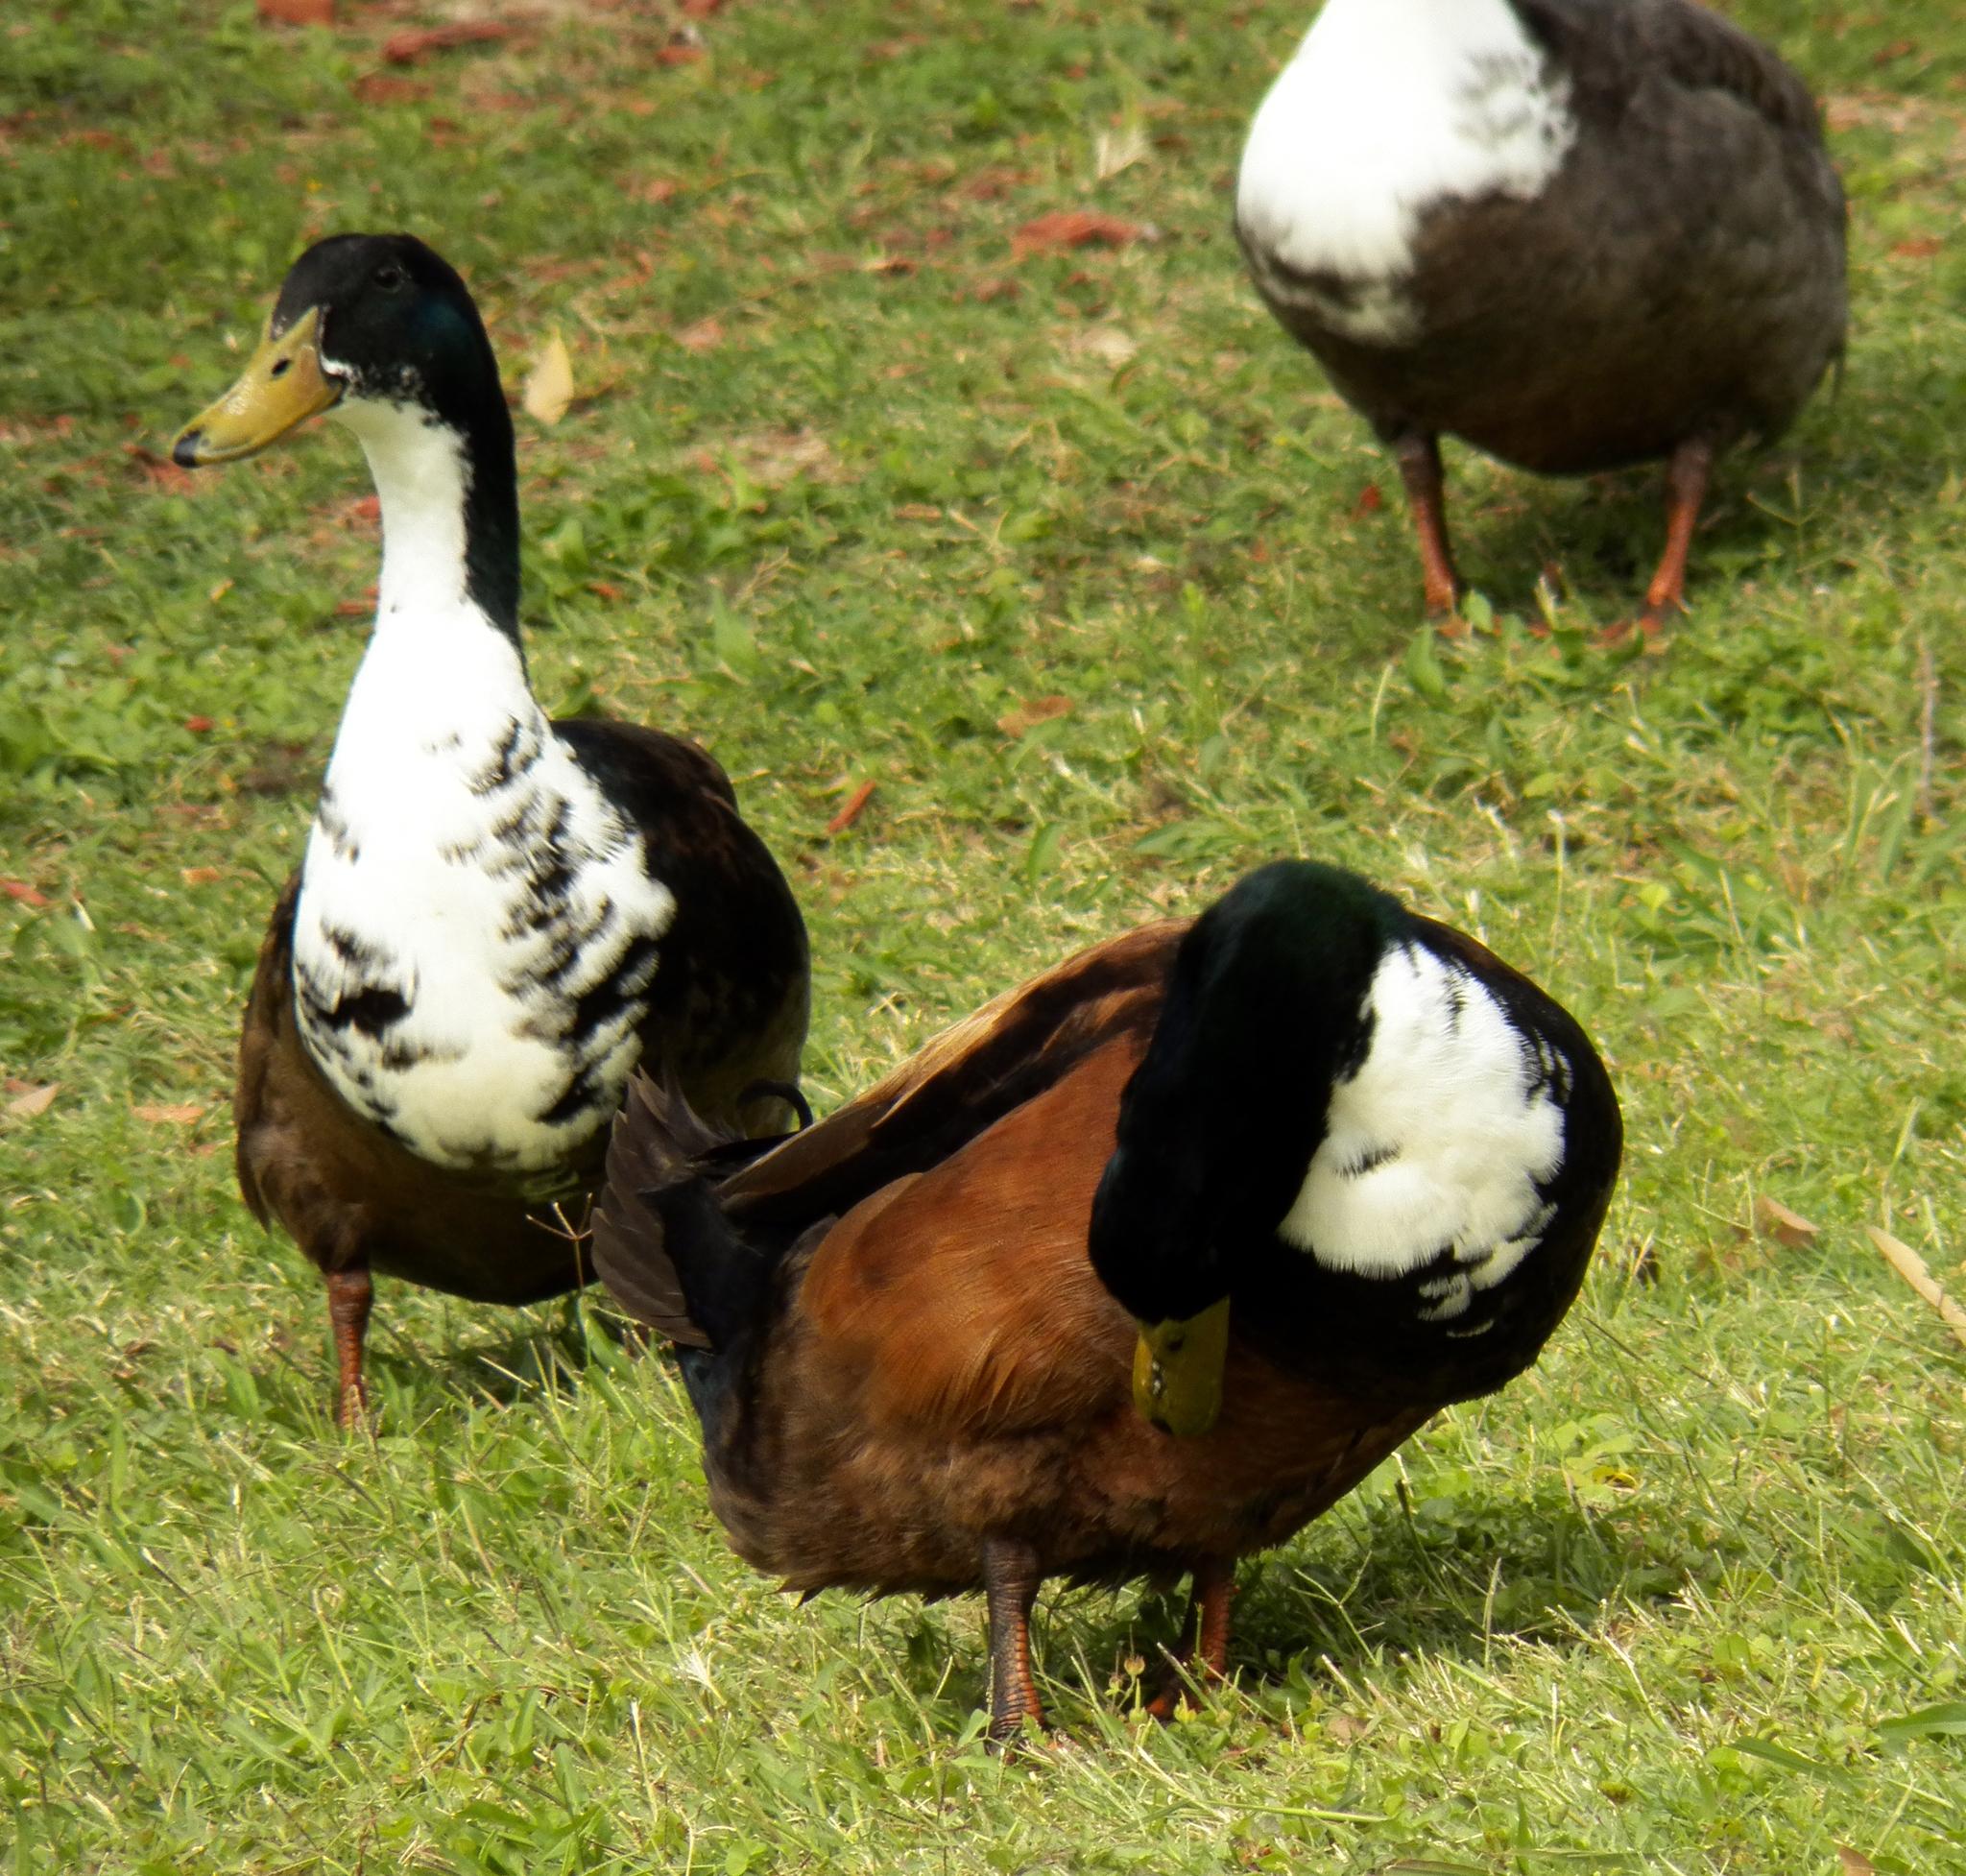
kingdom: Animalia
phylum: Chordata
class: Aves
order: Anseriformes
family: Anatidae
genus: Anas
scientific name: Anas platyrhynchos
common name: Mallard
